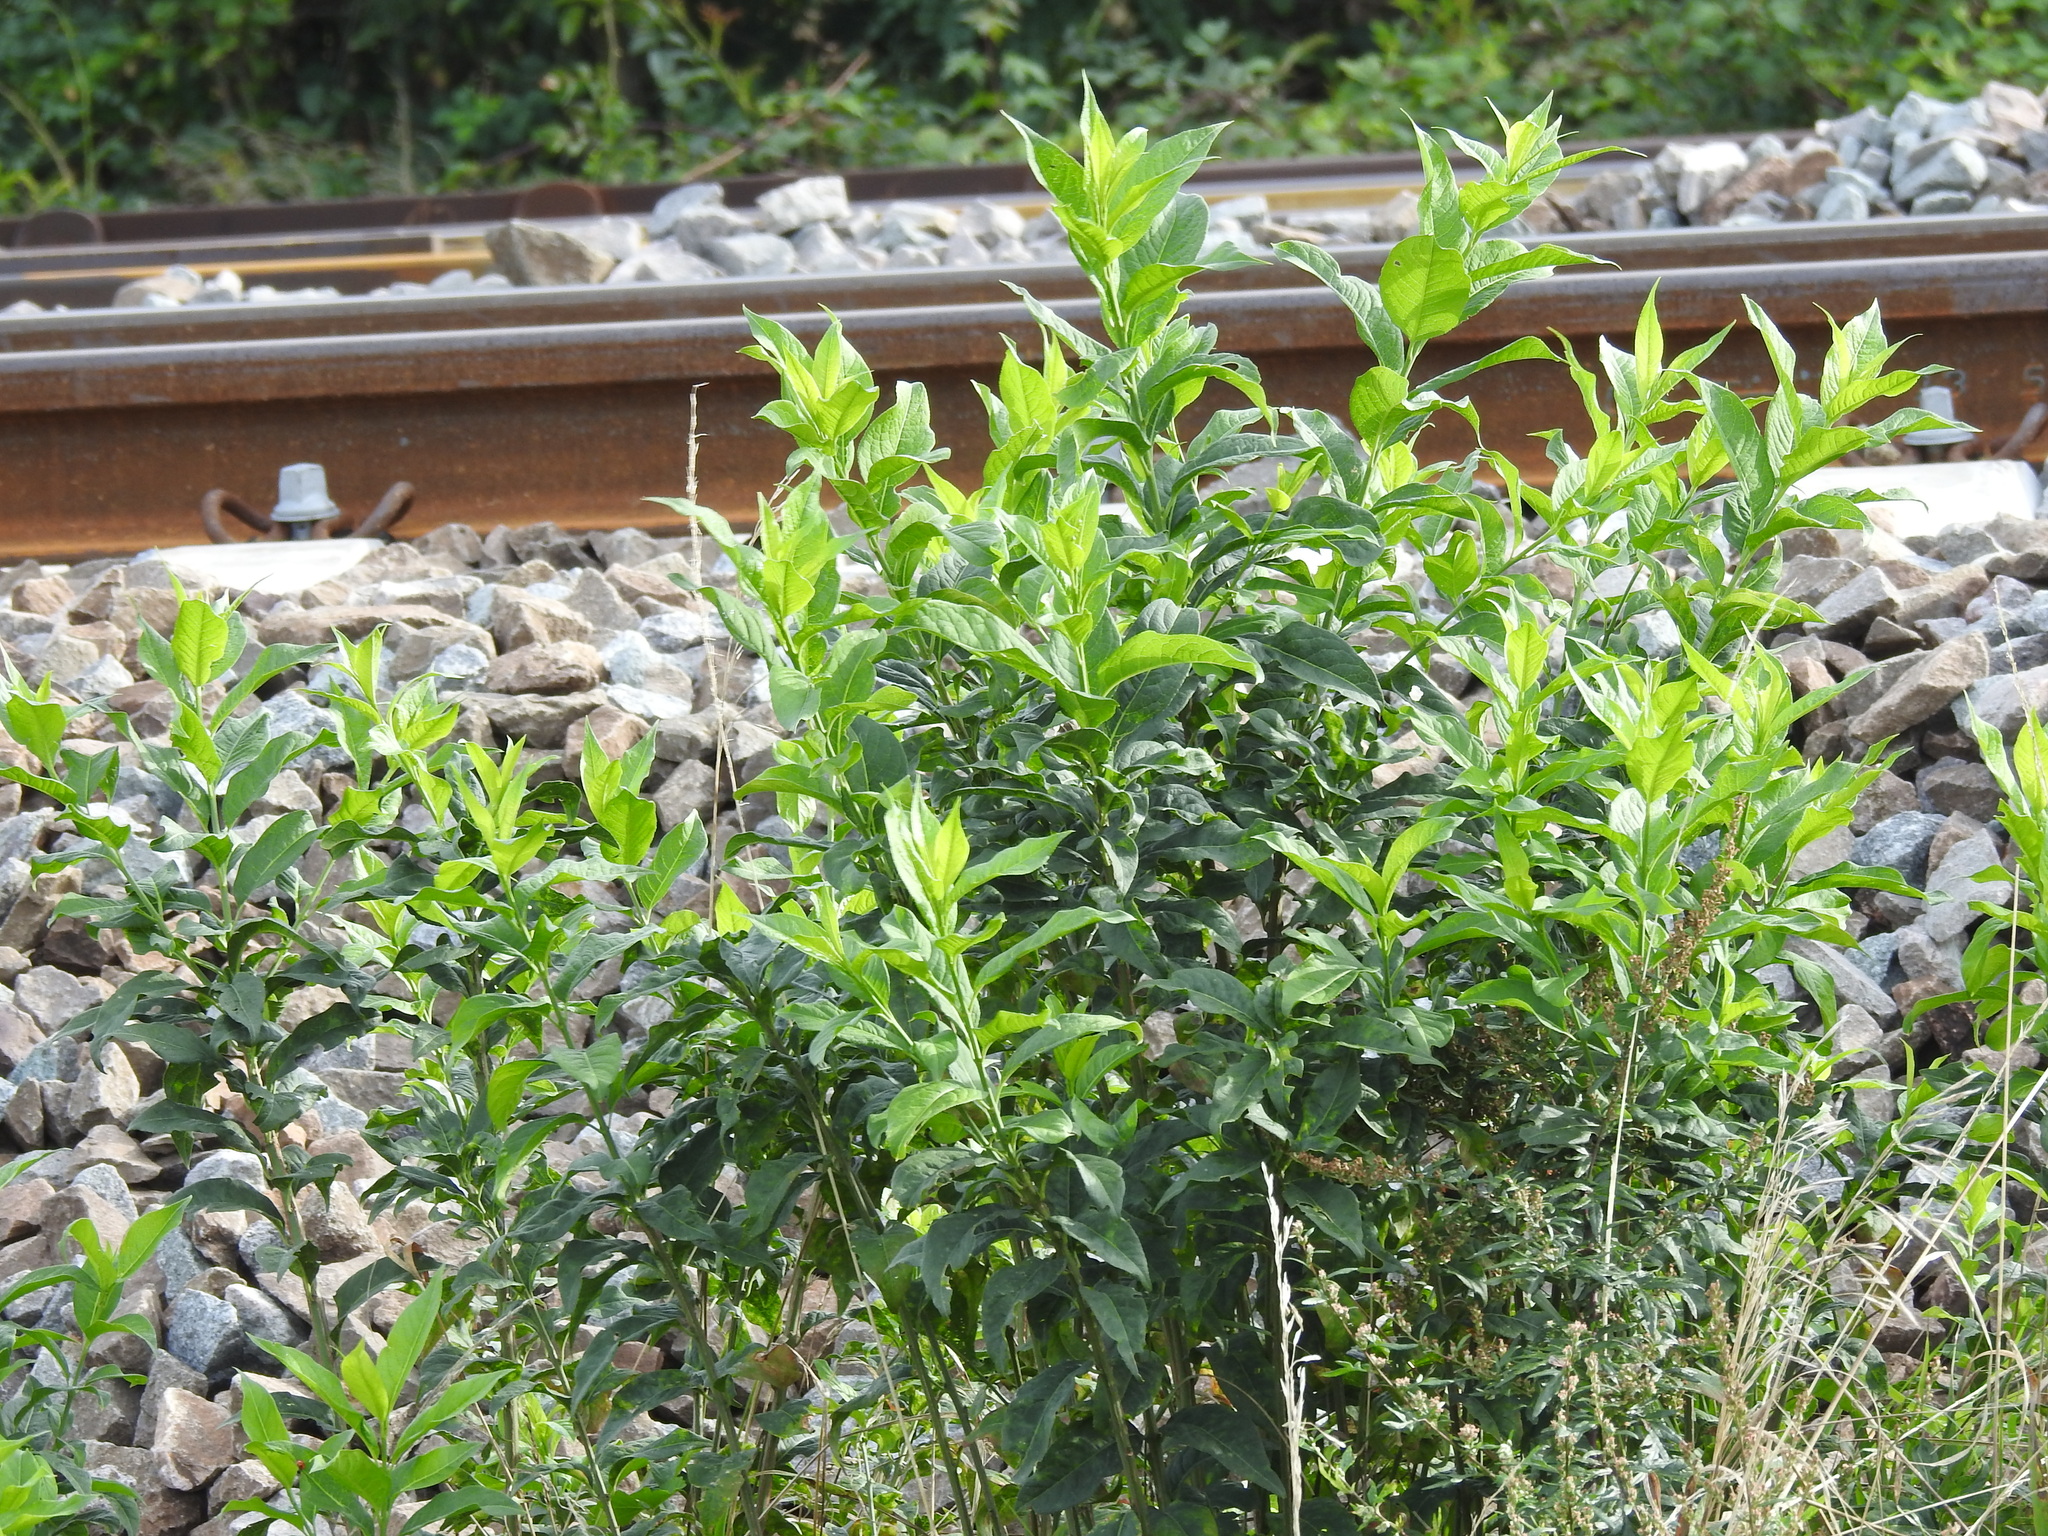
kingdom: Plantae
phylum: Tracheophyta
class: Magnoliopsida
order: Celastrales
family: Celastraceae
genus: Euonymus
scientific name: Euonymus europaeus
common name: Spindle
